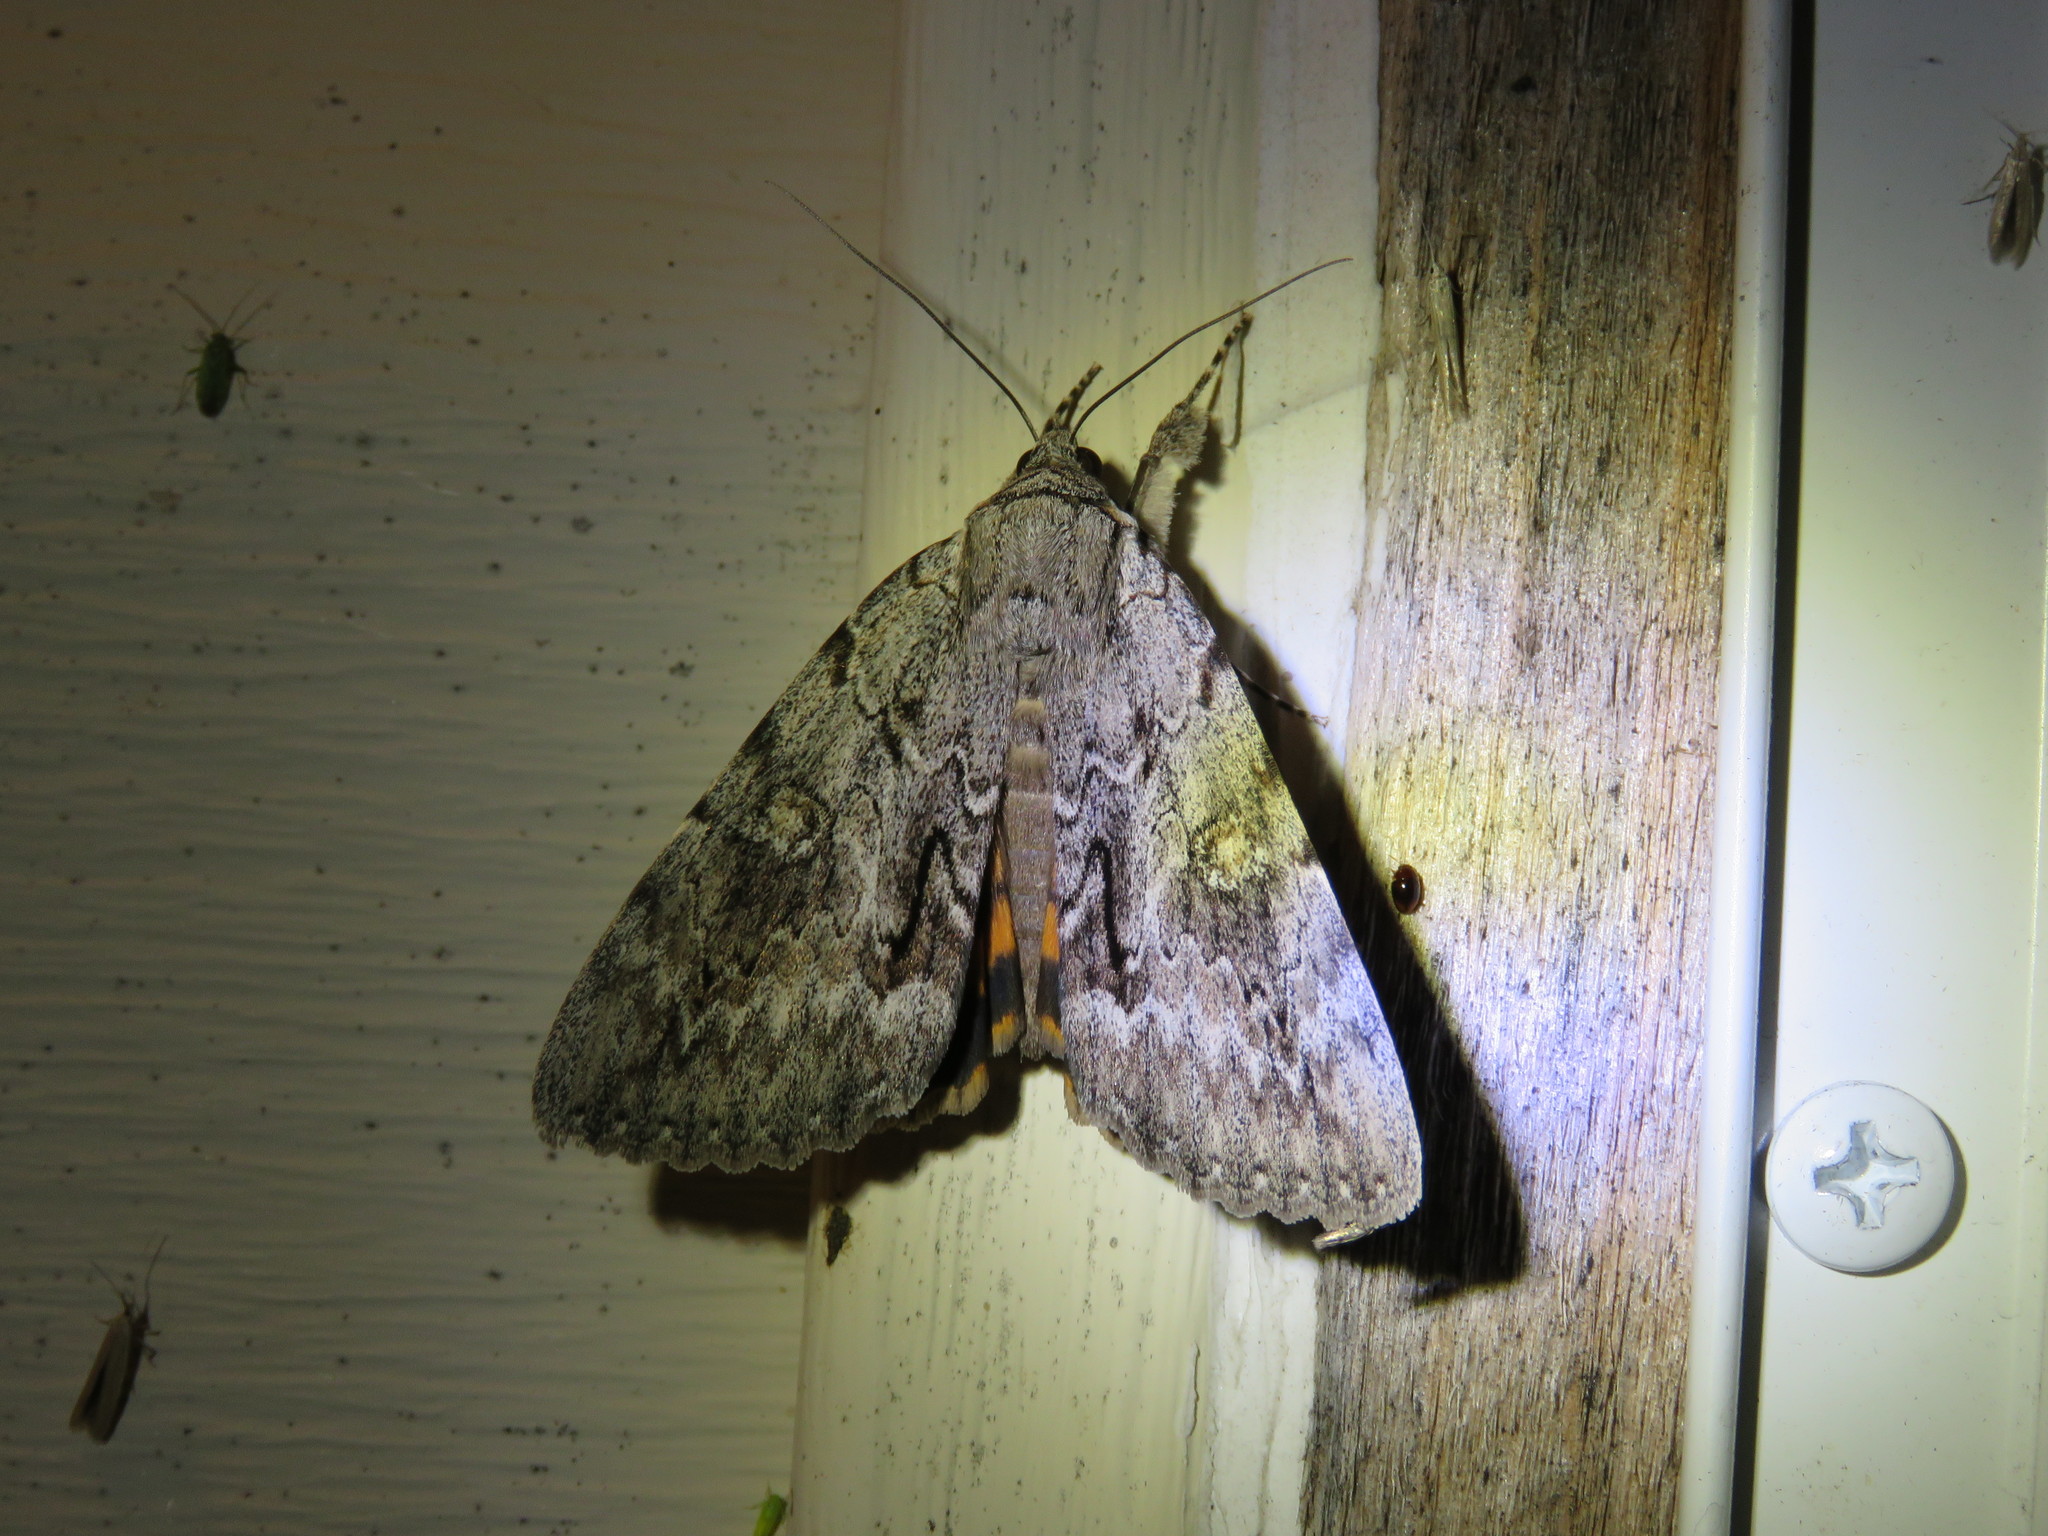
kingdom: Animalia
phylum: Arthropoda
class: Insecta
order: Lepidoptera
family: Erebidae
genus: Catocala
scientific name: Catocala habilis
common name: Habilis underwing
